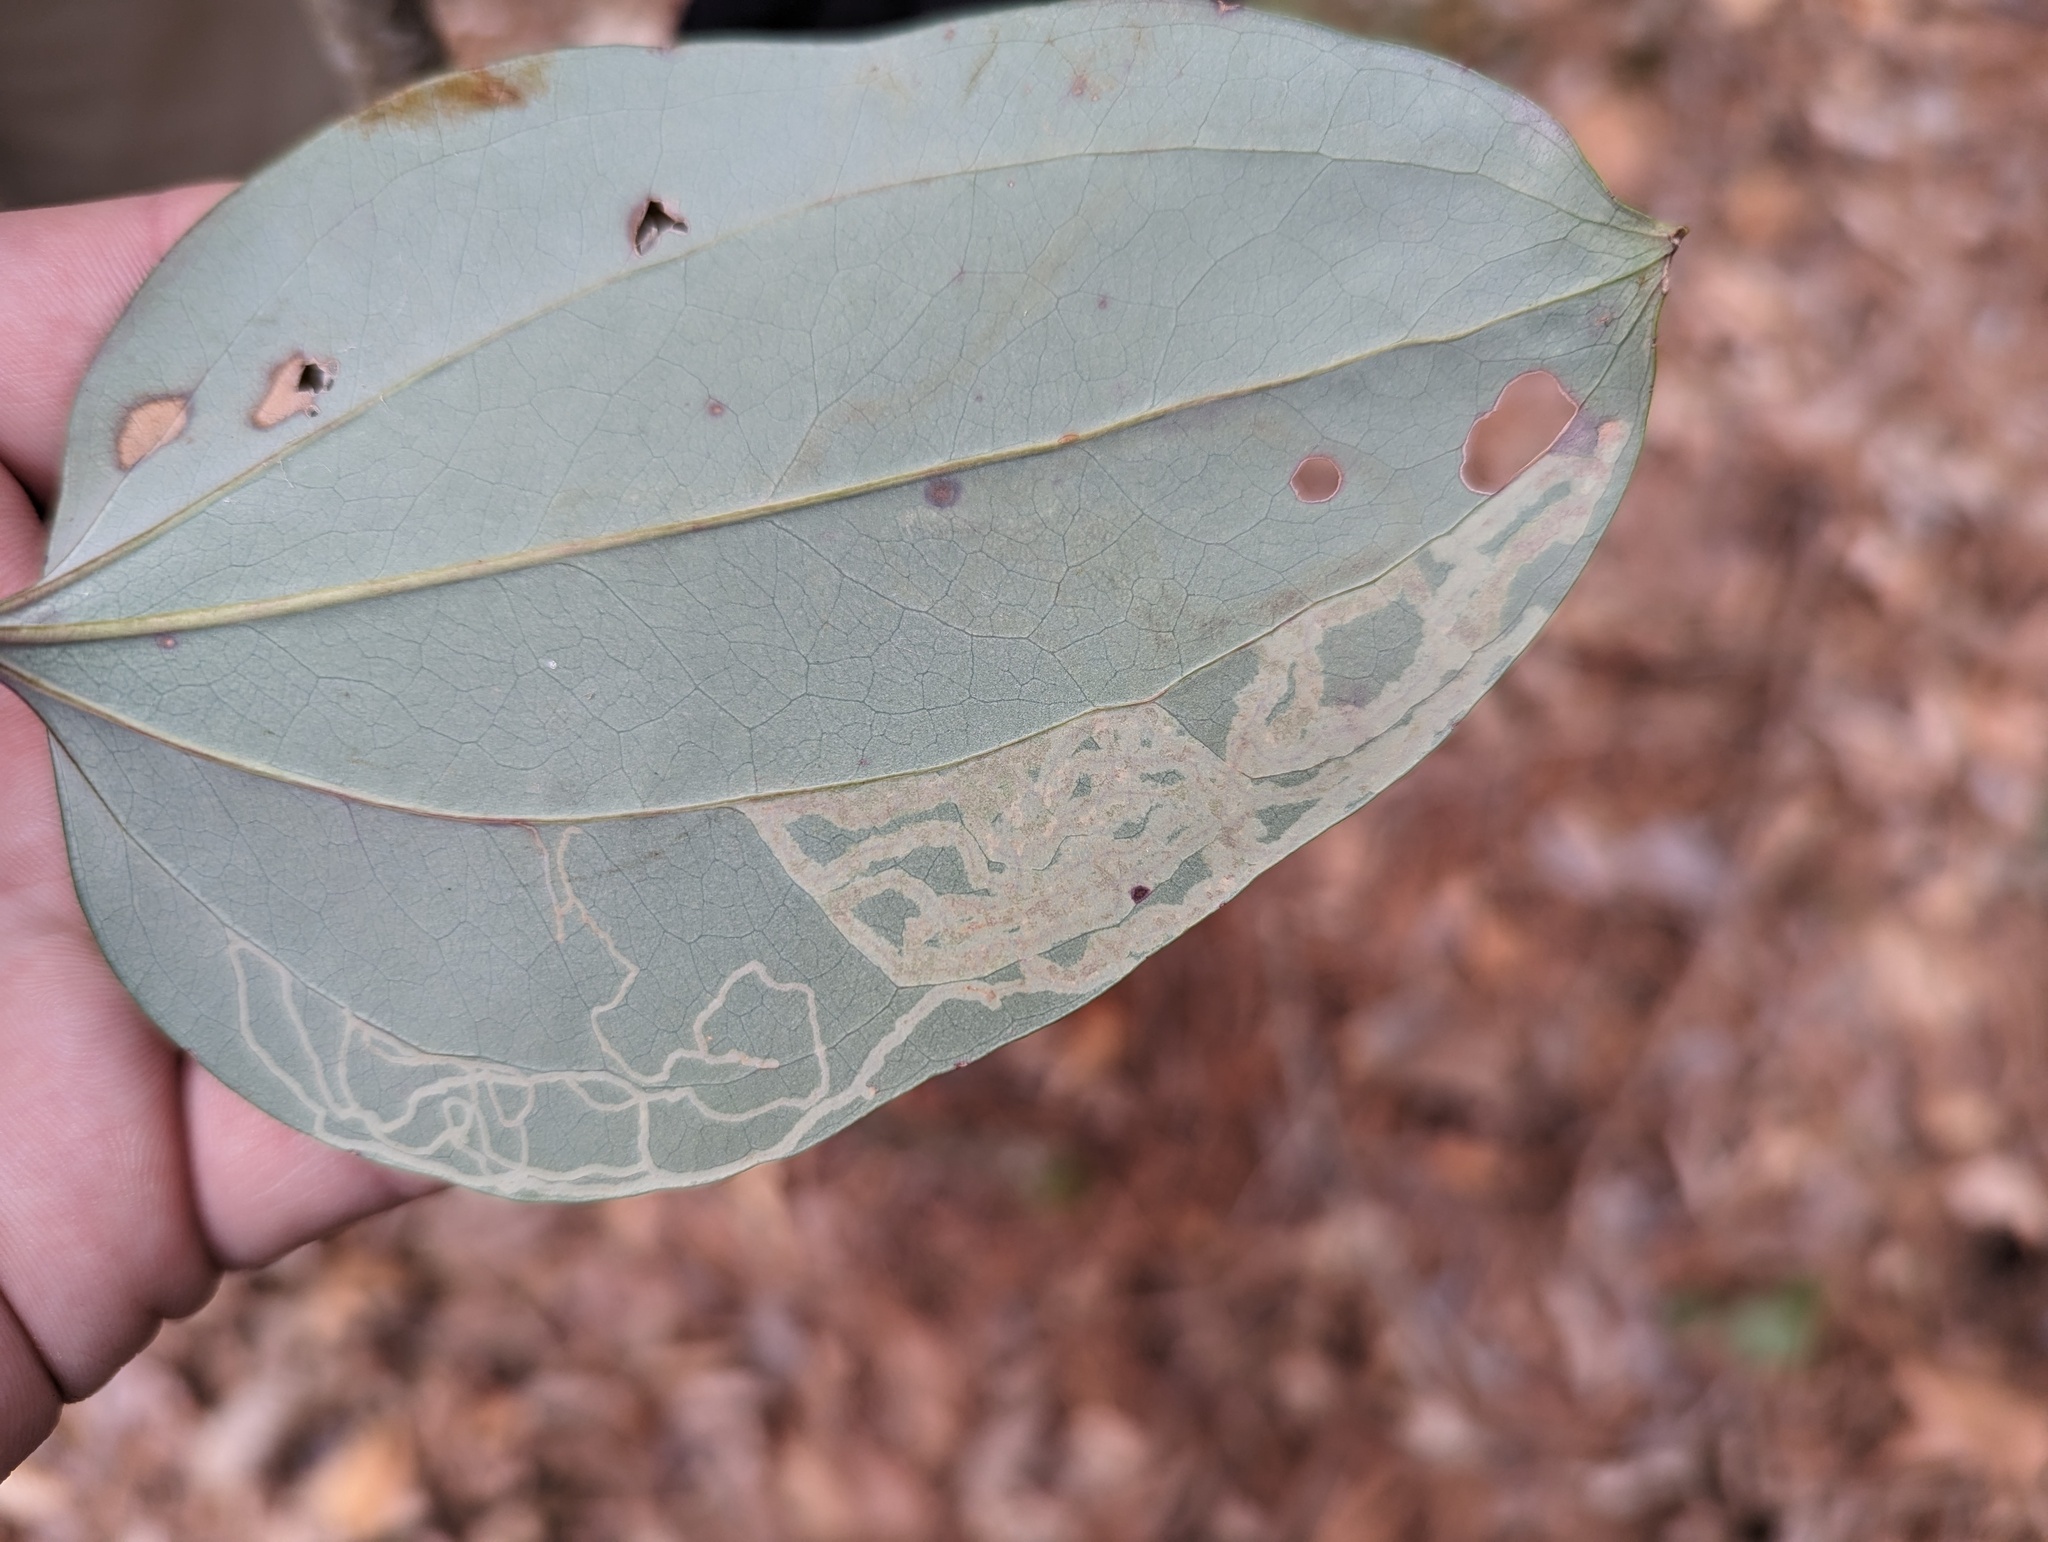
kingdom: Plantae
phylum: Tracheophyta
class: Liliopsida
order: Liliales
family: Smilacaceae
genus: Smilax
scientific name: Smilax glauca
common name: Cat greenbrier
